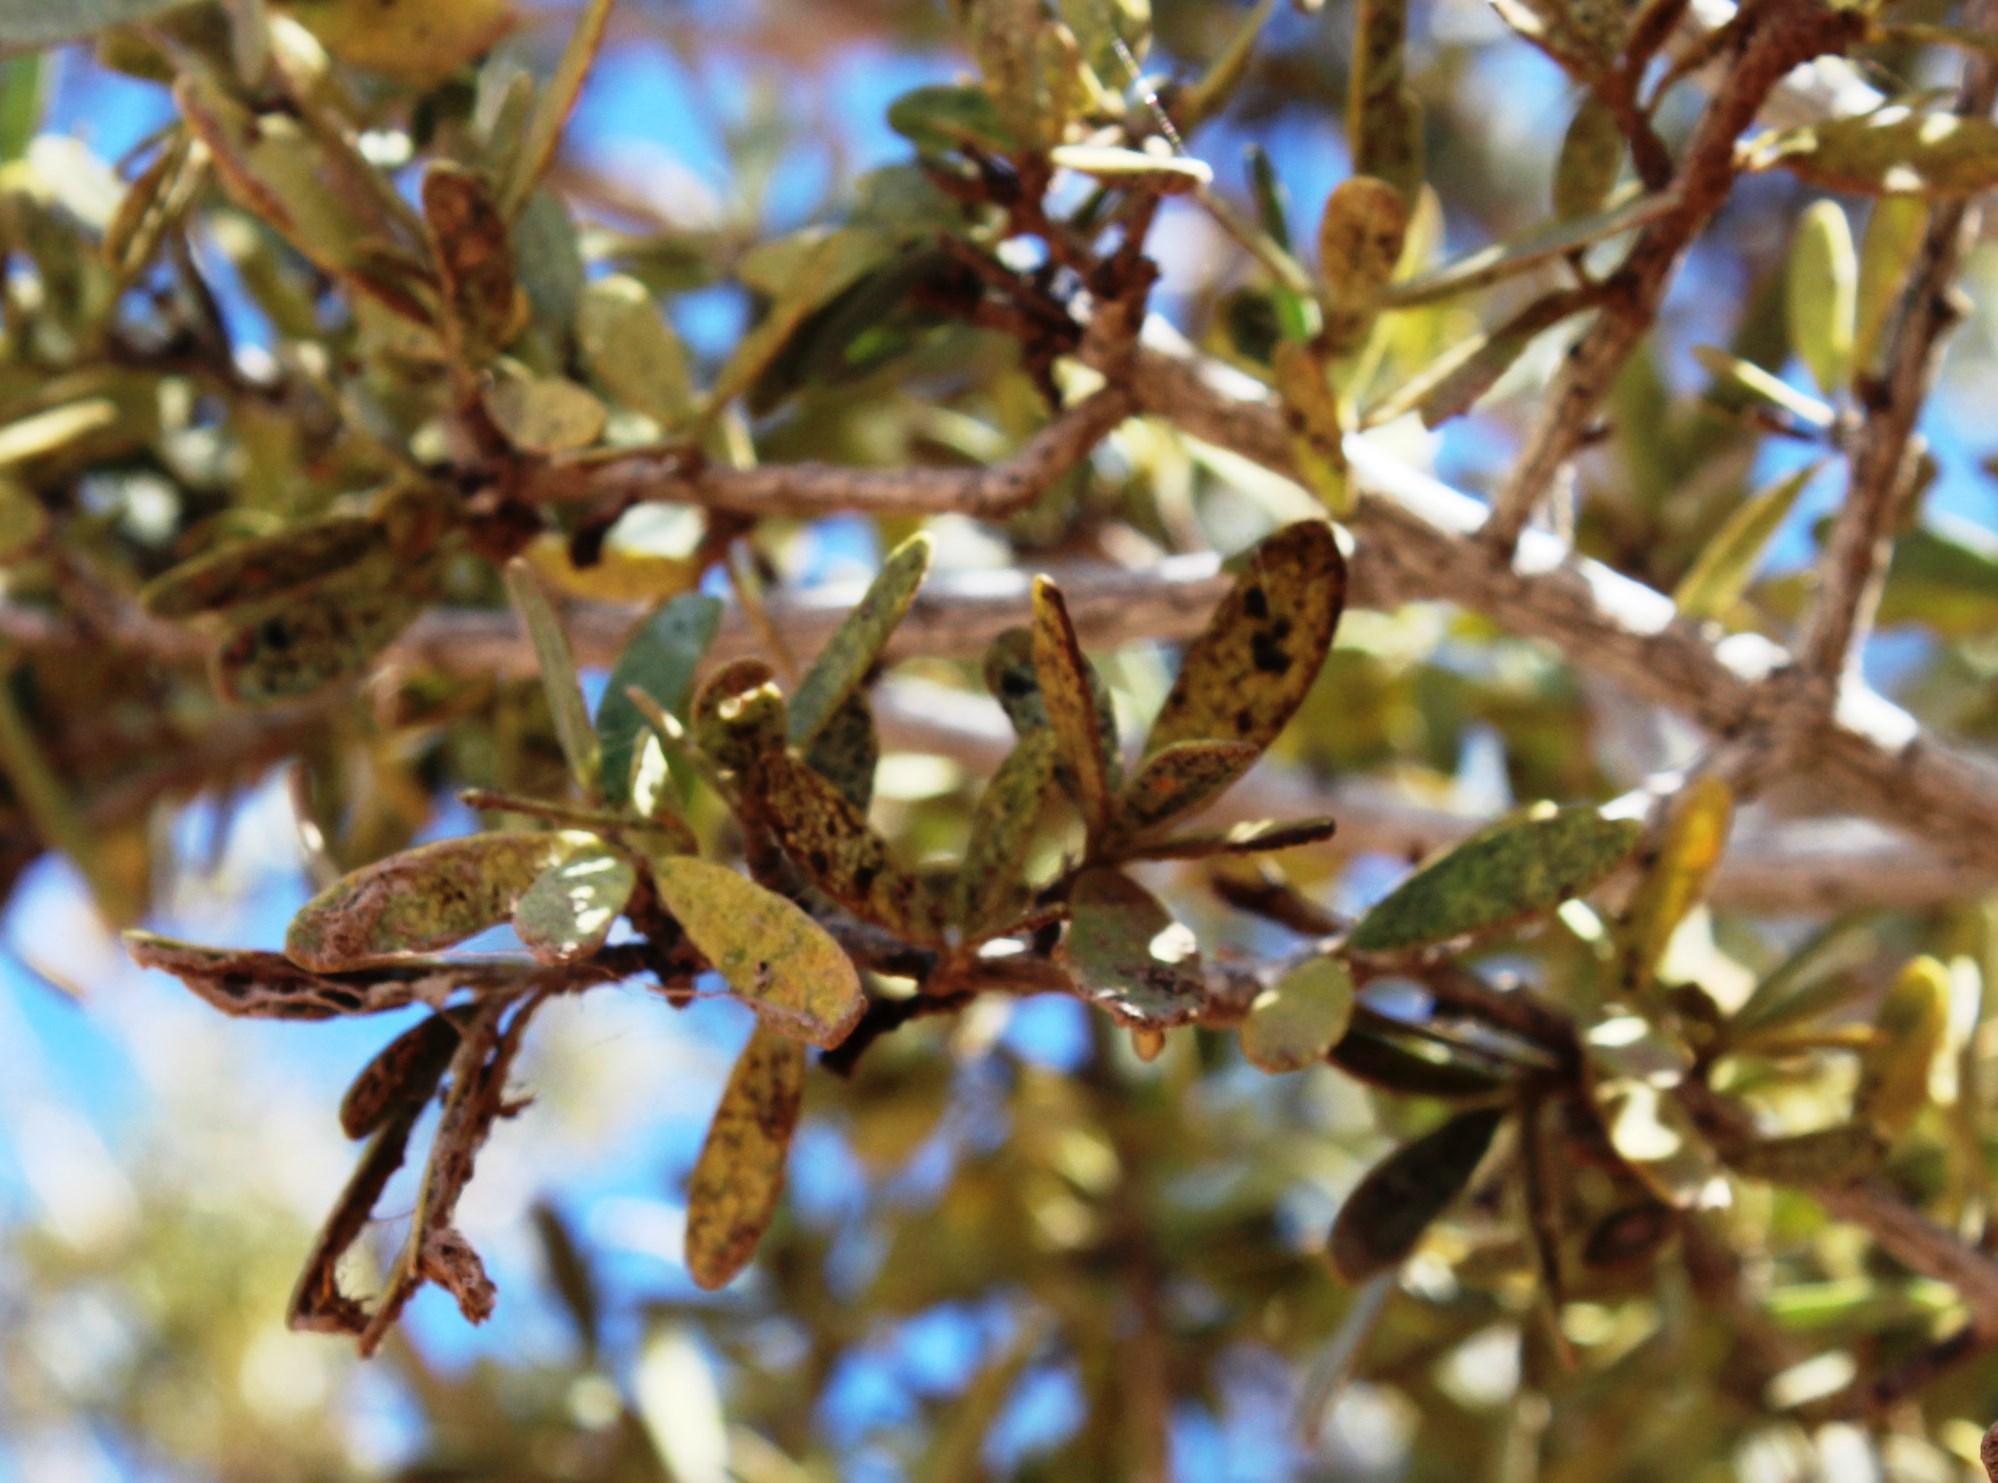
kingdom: Plantae
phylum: Tracheophyta
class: Magnoliopsida
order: Brassicales
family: Capparaceae
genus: Boscia
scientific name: Boscia albitrunca
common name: Caper bush
